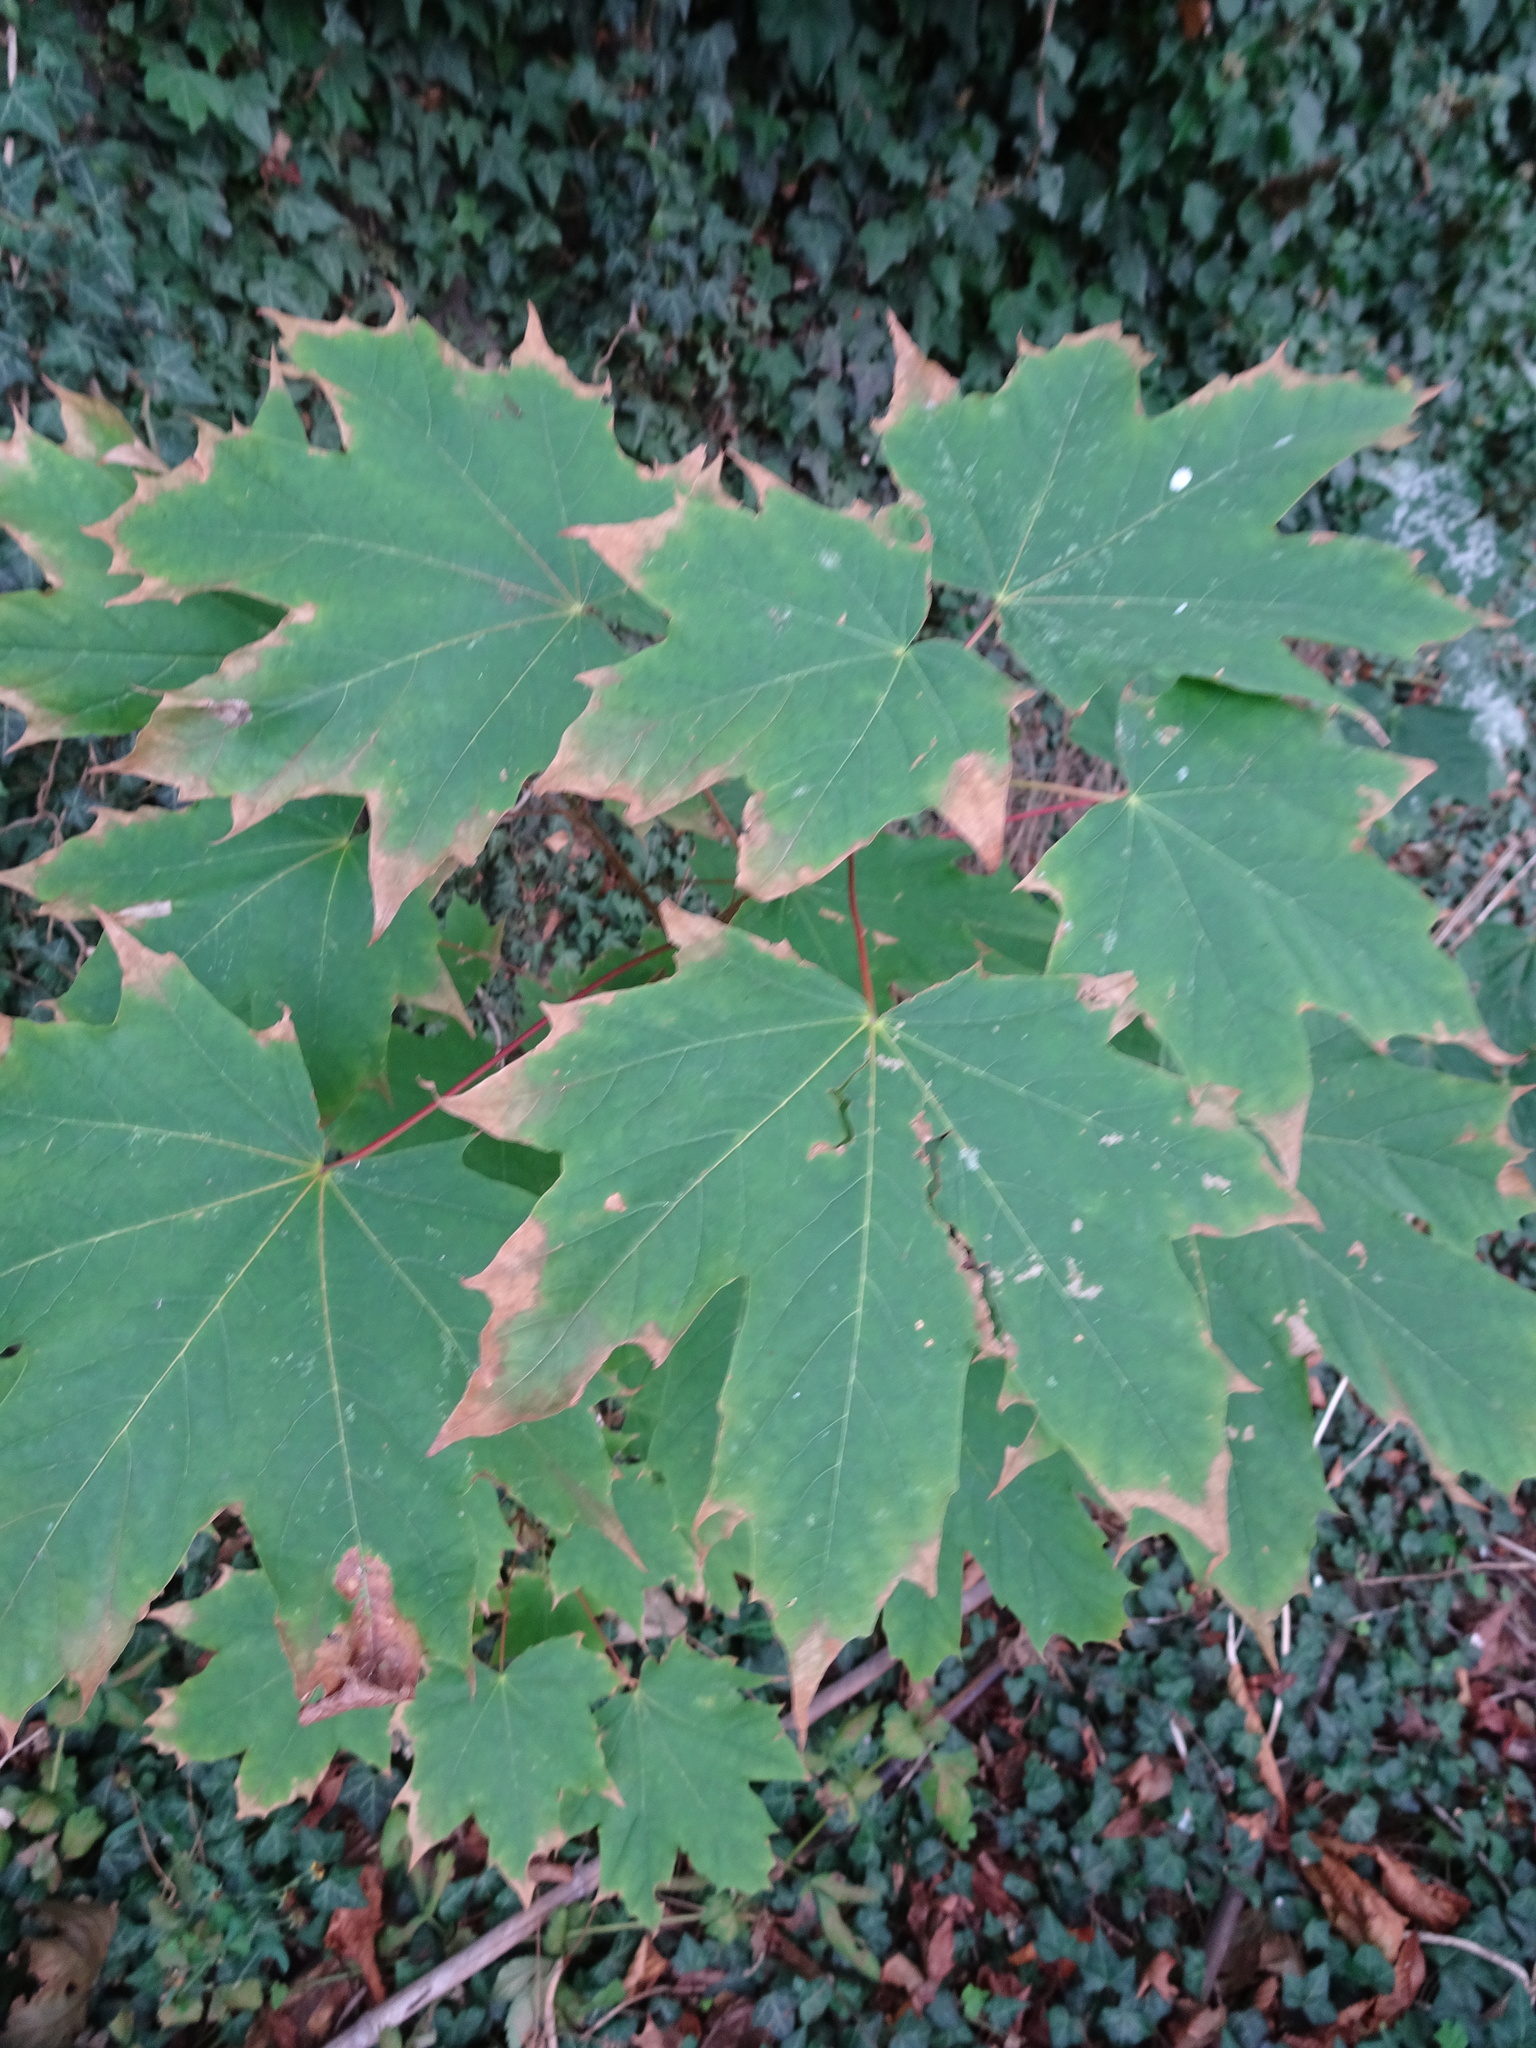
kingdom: Plantae
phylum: Tracheophyta
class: Magnoliopsida
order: Sapindales
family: Sapindaceae
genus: Acer
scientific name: Acer platanoides
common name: Norway maple
